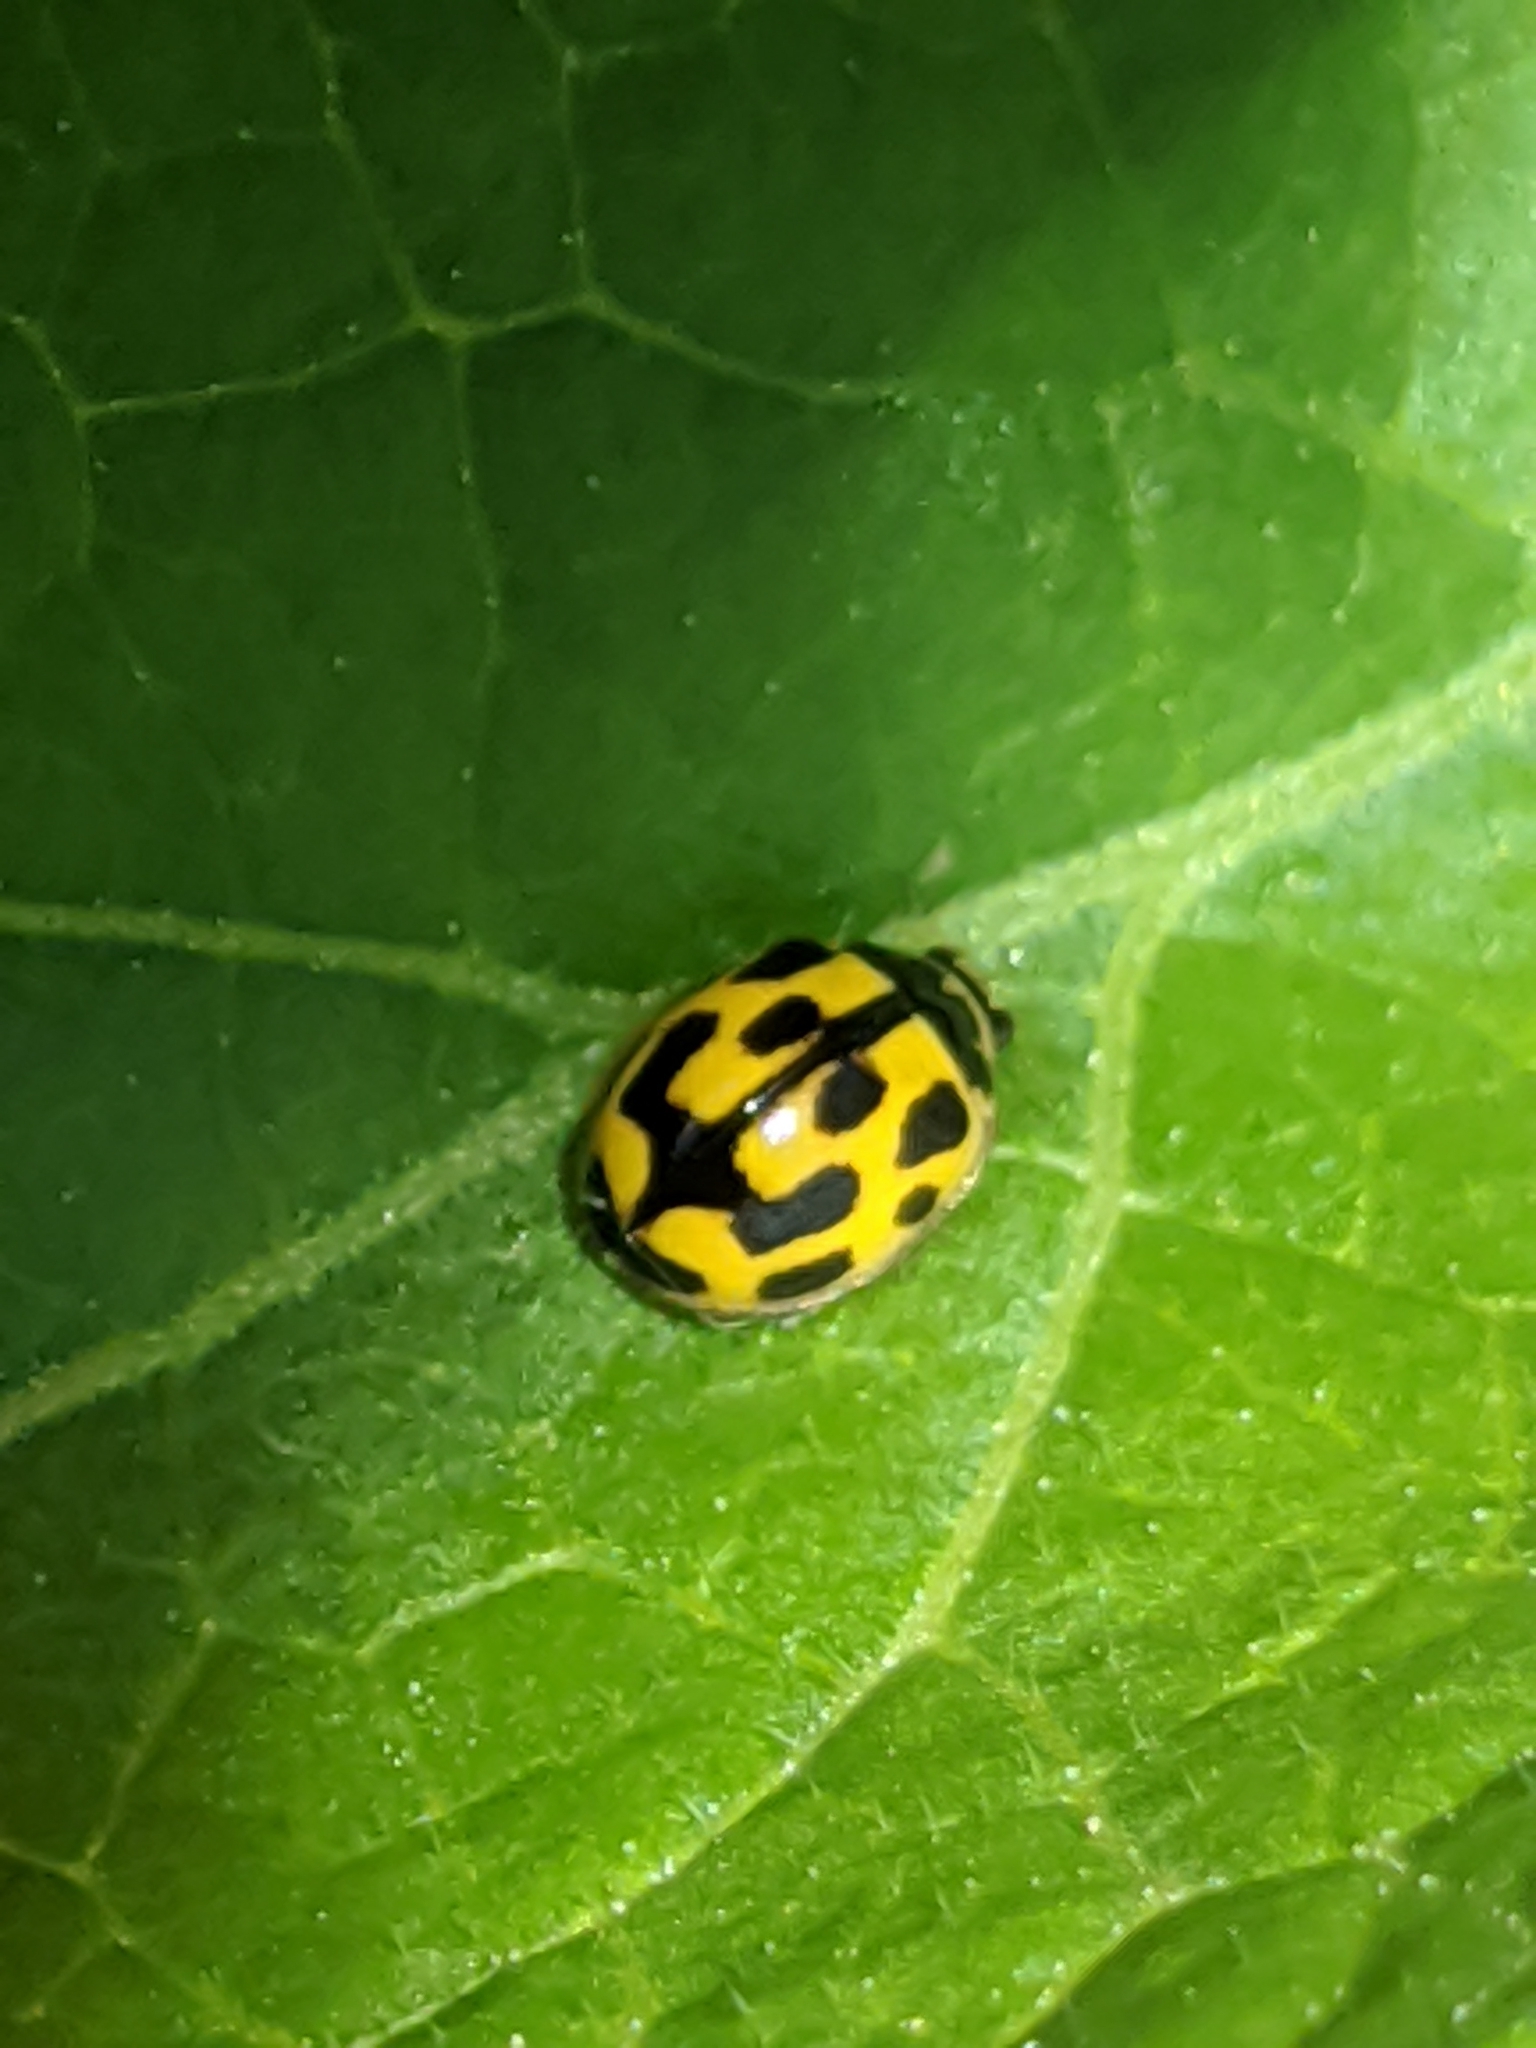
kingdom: Animalia
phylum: Arthropoda
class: Insecta
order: Coleoptera
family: Coccinellidae
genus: Propylaea
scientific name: Propylaea quatuordecimpunctata
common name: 14-spotted ladybird beetle
